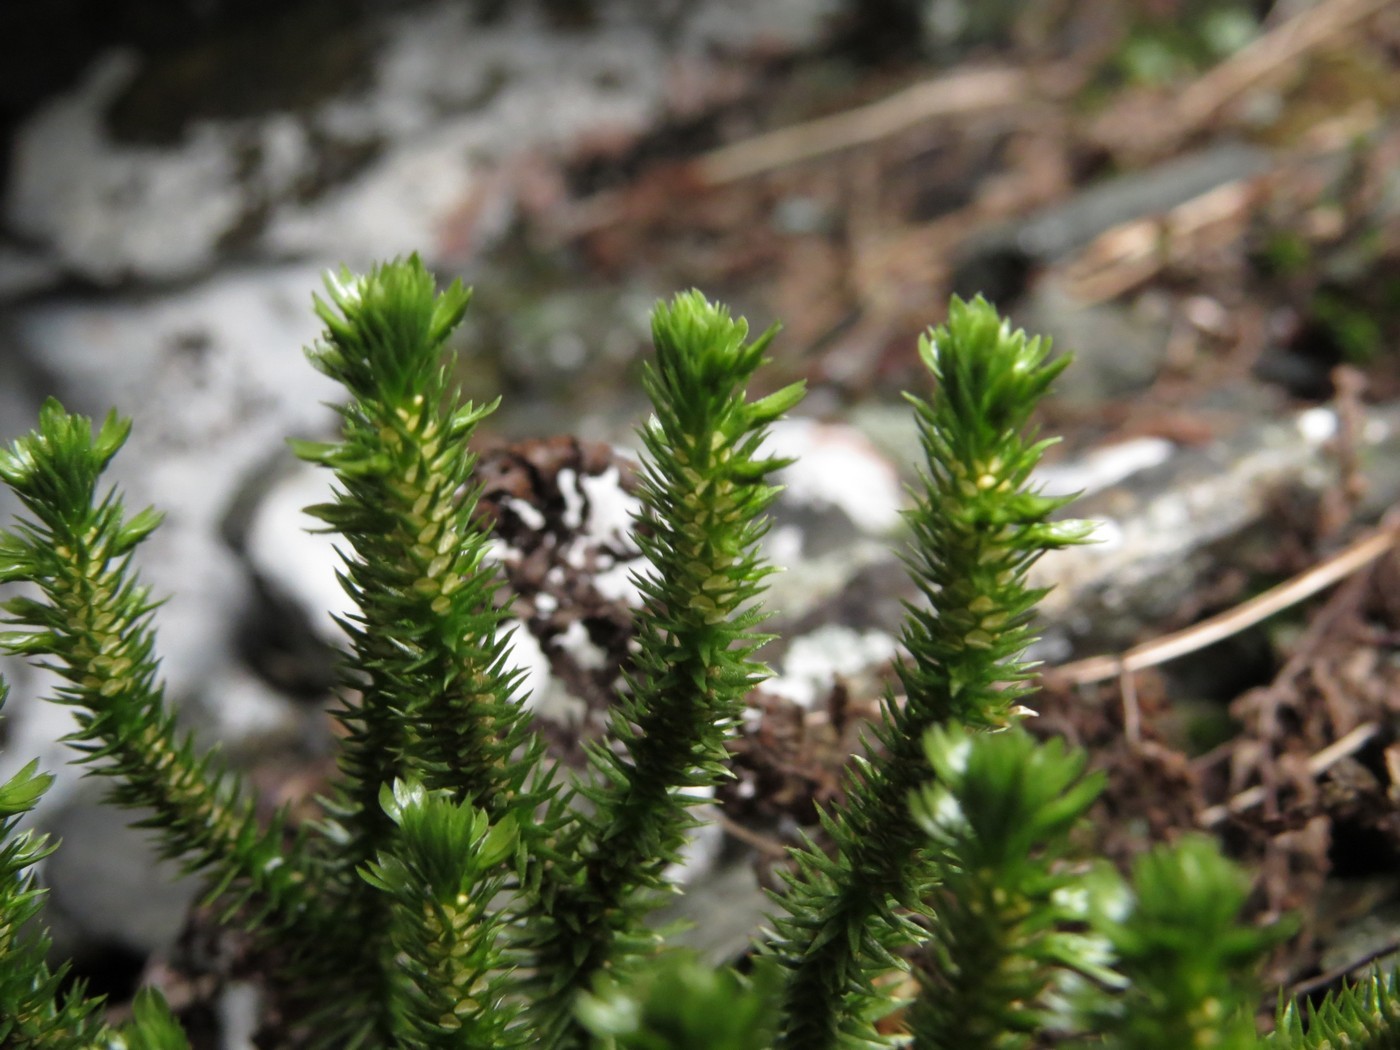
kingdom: Plantae
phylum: Tracheophyta
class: Lycopodiopsida
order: Lycopodiales
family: Lycopodiaceae
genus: Huperzia
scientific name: Huperzia selago
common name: Northern firmoss
